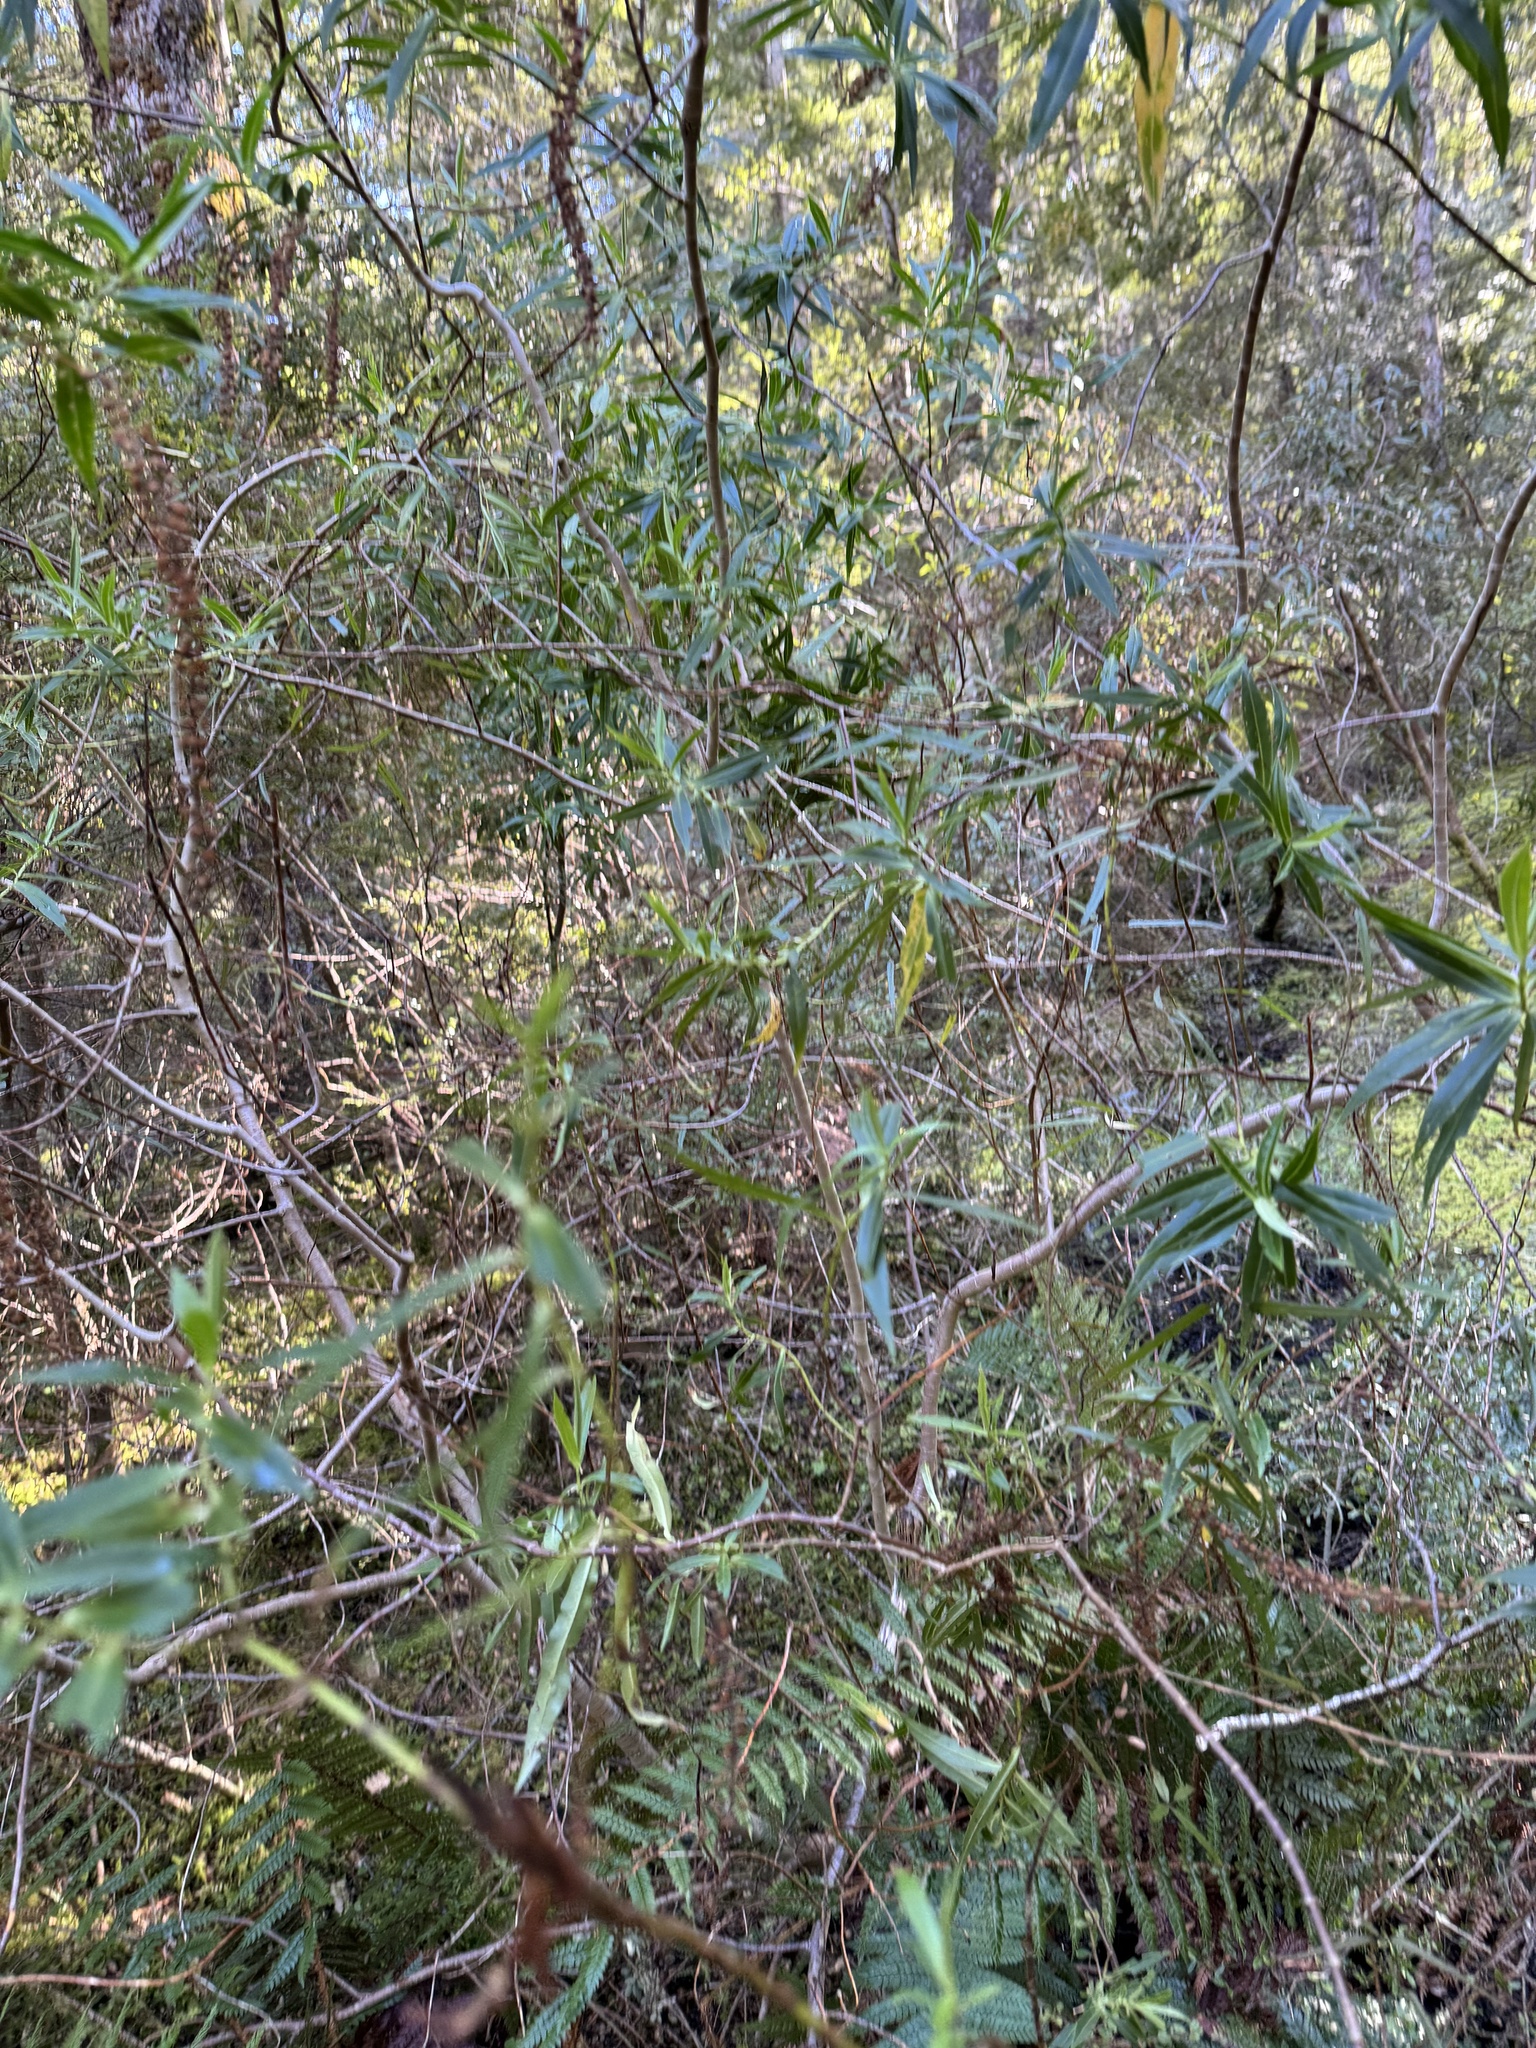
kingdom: Plantae
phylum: Tracheophyta
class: Magnoliopsida
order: Lamiales
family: Plantaginaceae
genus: Veronica
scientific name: Veronica salicifolia
